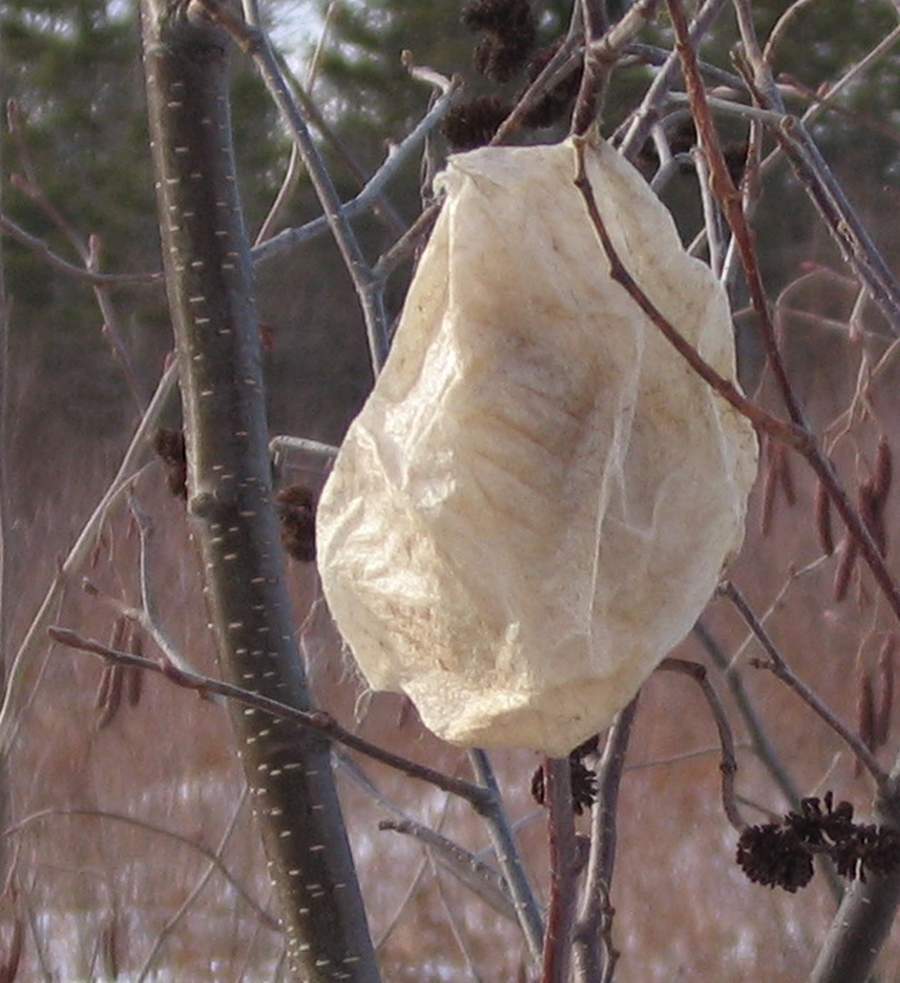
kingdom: Animalia
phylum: Arthropoda
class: Insecta
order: Lepidoptera
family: Saturniidae
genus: Hyalophora
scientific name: Hyalophora cecropia
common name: Cecropia silkmoth
